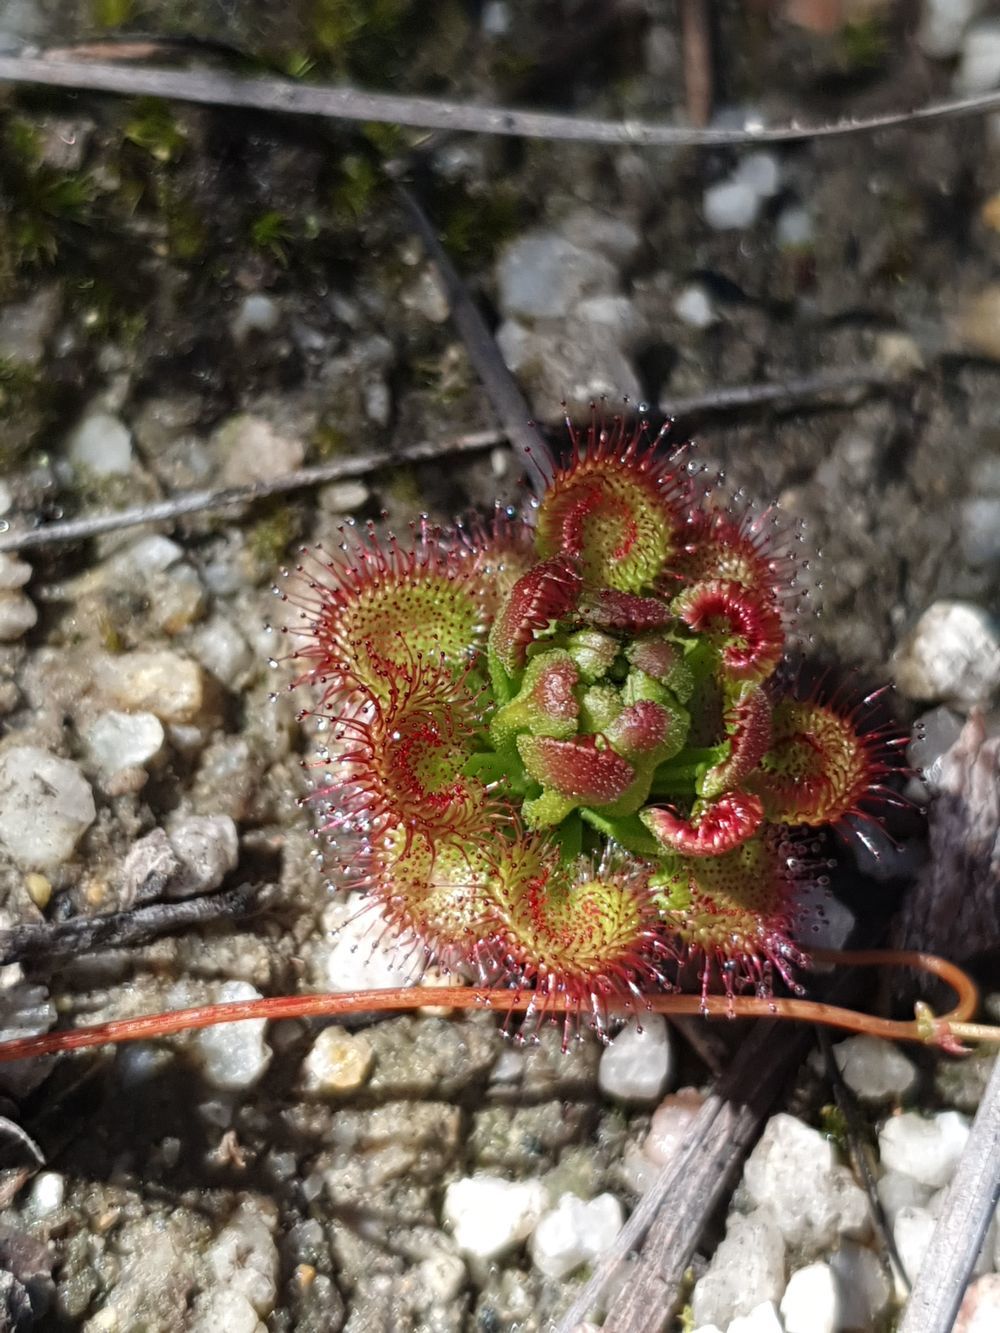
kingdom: Plantae
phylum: Tracheophyta
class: Magnoliopsida
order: Caryophyllales
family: Droseraceae
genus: Drosera
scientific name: Drosera stolonifera
